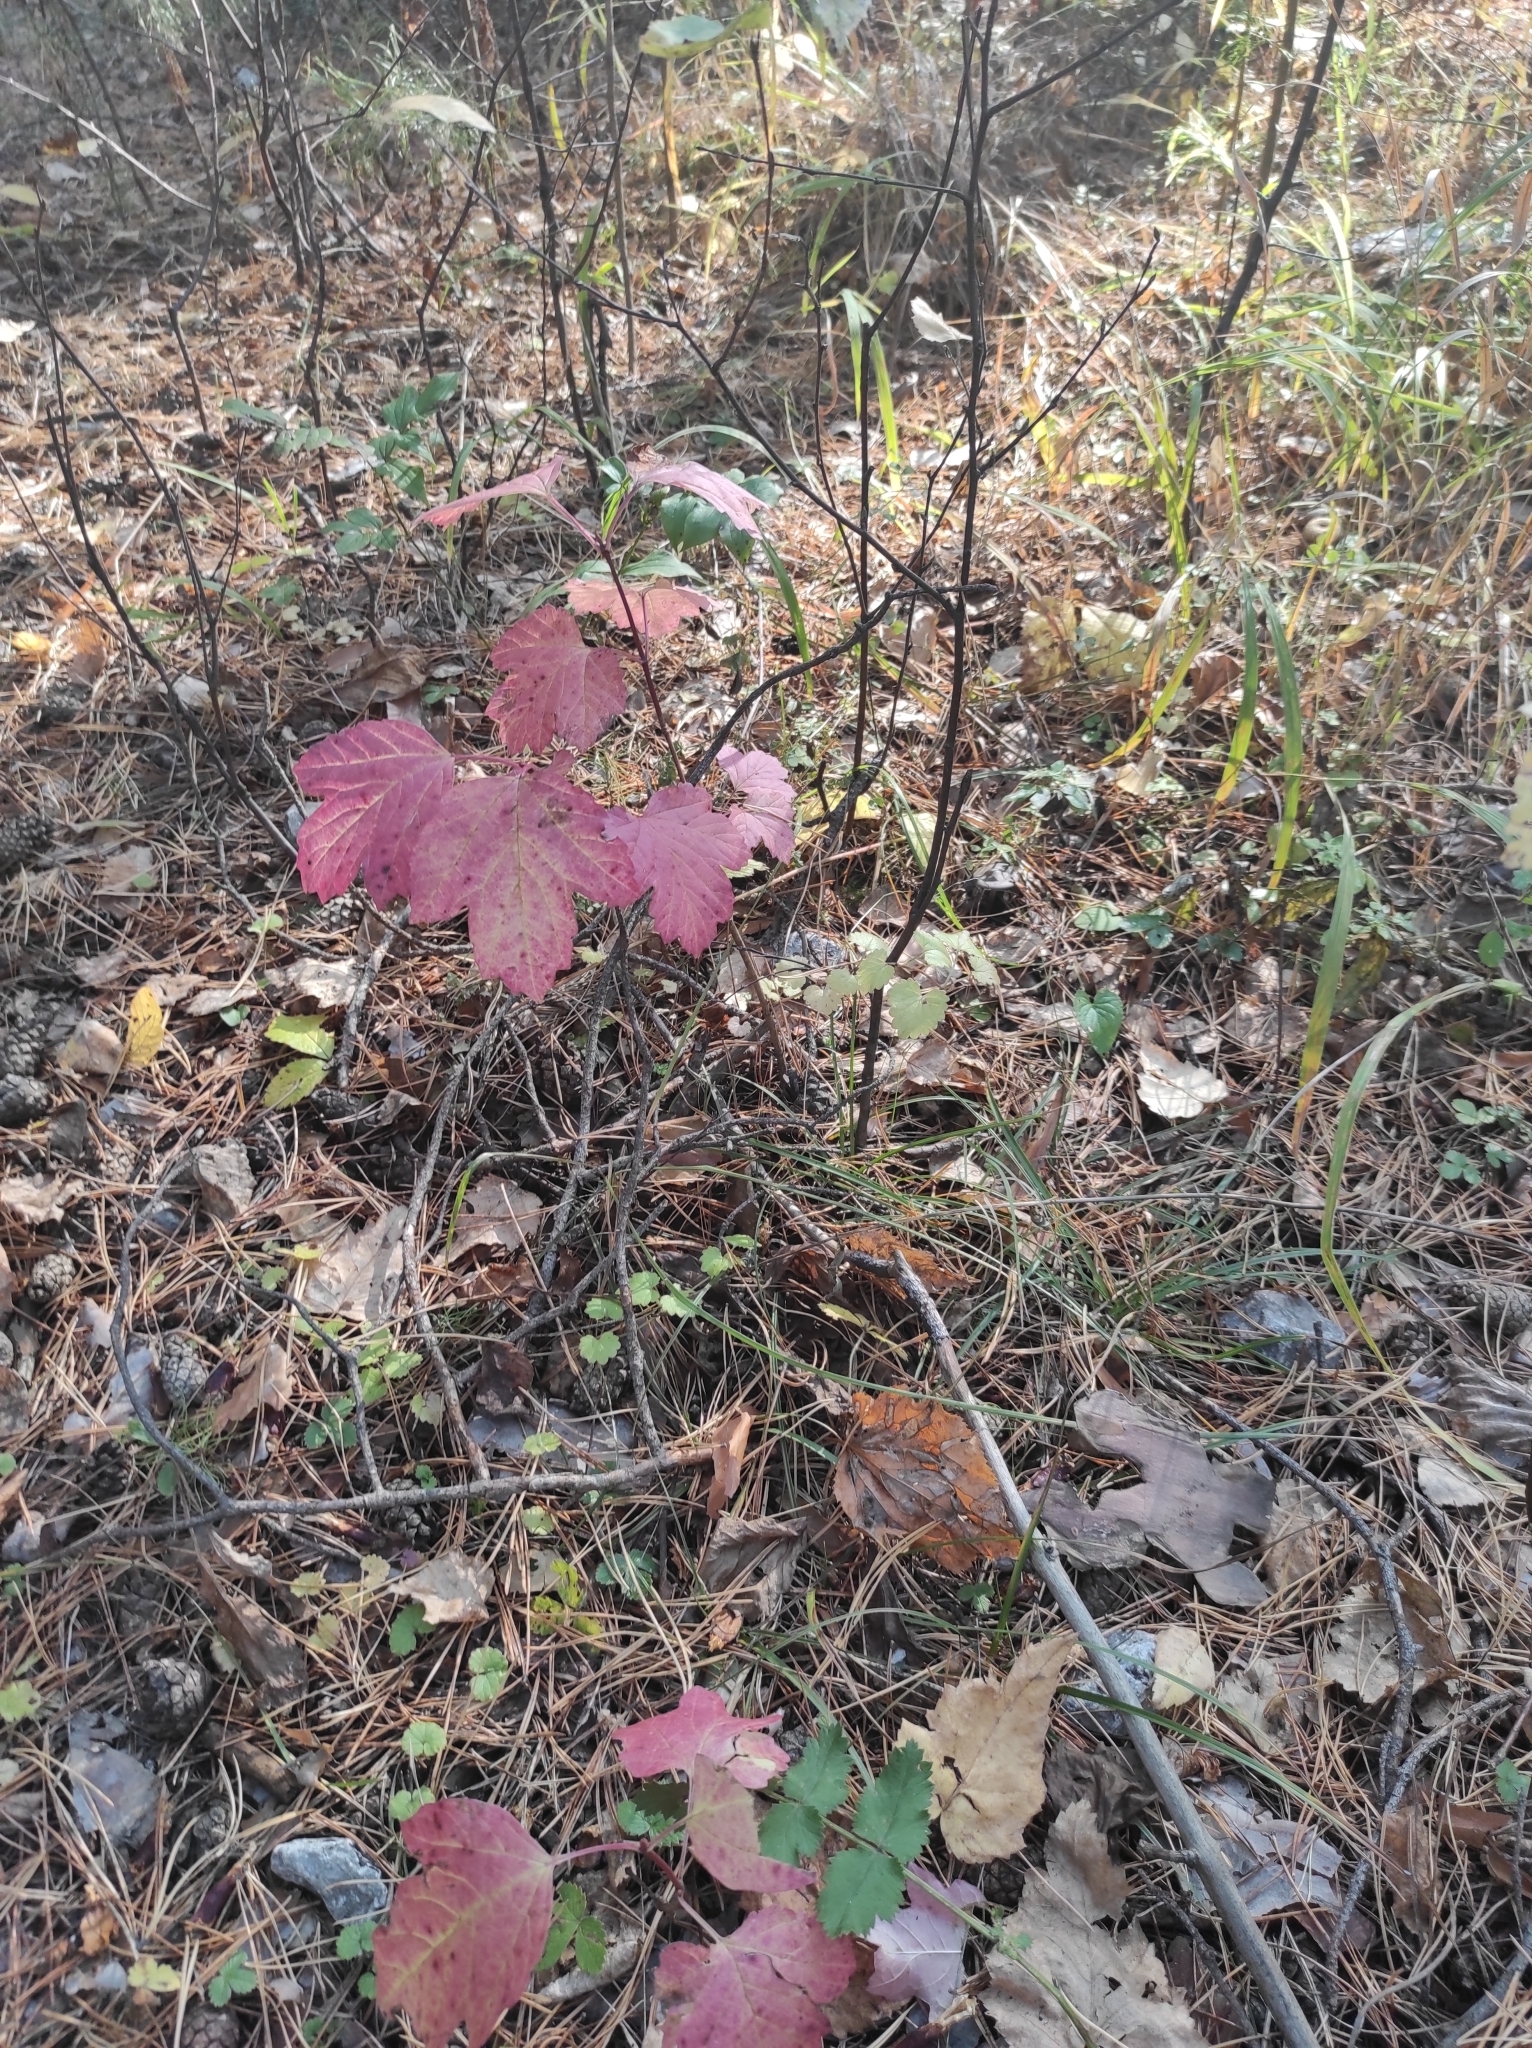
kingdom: Plantae
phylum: Tracheophyta
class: Magnoliopsida
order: Dipsacales
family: Viburnaceae
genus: Viburnum
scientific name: Viburnum opulus
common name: Guelder-rose
